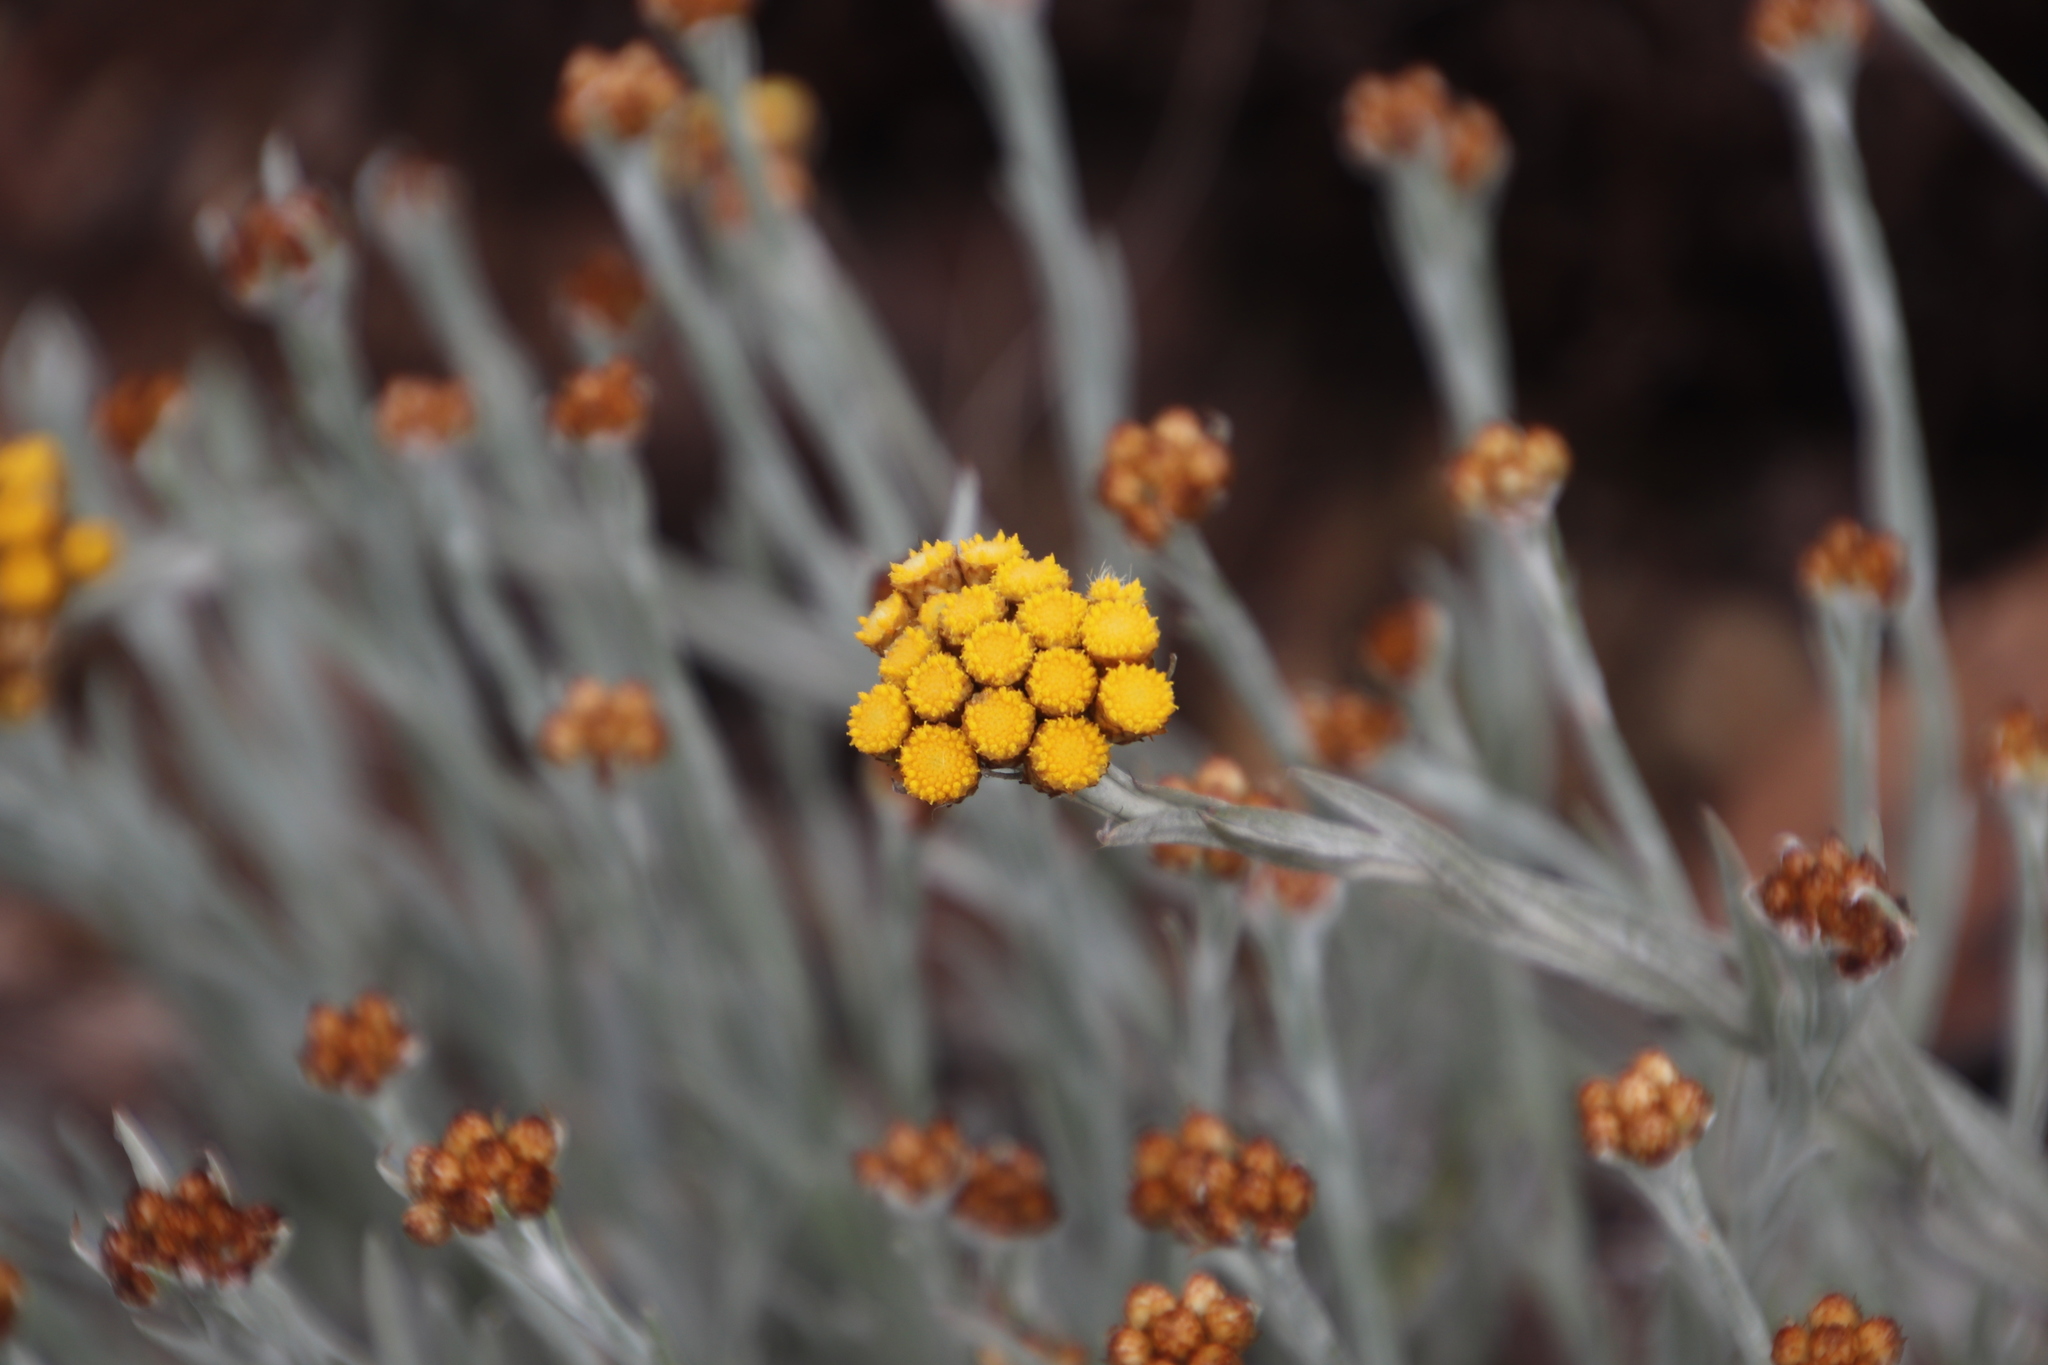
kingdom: Plantae
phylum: Tracheophyta
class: Magnoliopsida
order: Asterales
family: Asteraceae
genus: Helichrysum
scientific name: Helichrysum psilolepis
